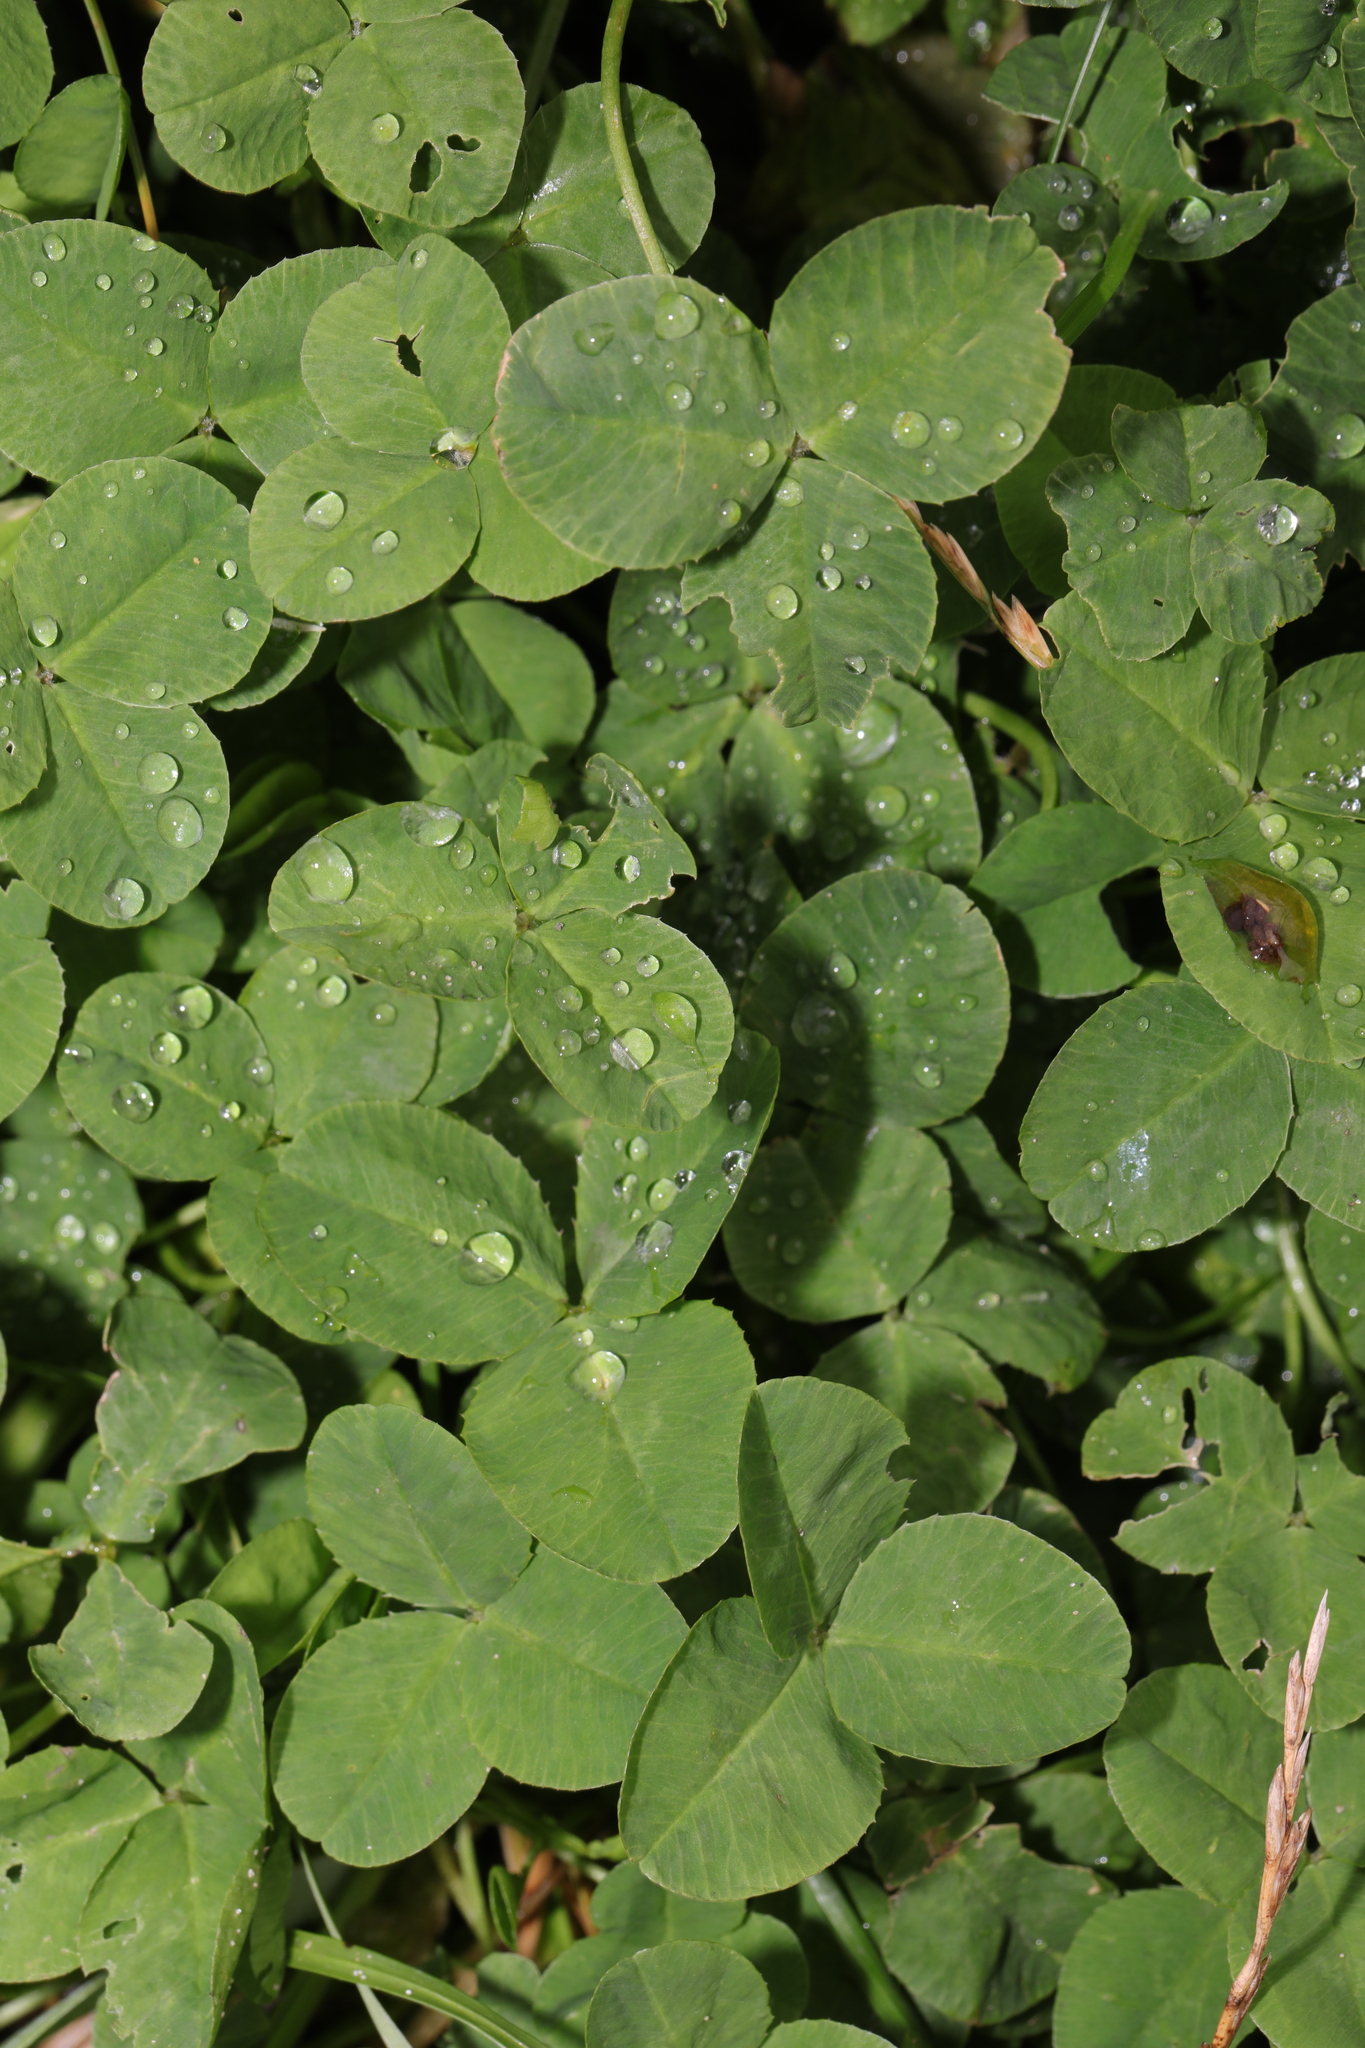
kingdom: Plantae
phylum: Tracheophyta
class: Magnoliopsida
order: Fabales
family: Fabaceae
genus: Trifolium
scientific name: Trifolium repens
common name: White clover
